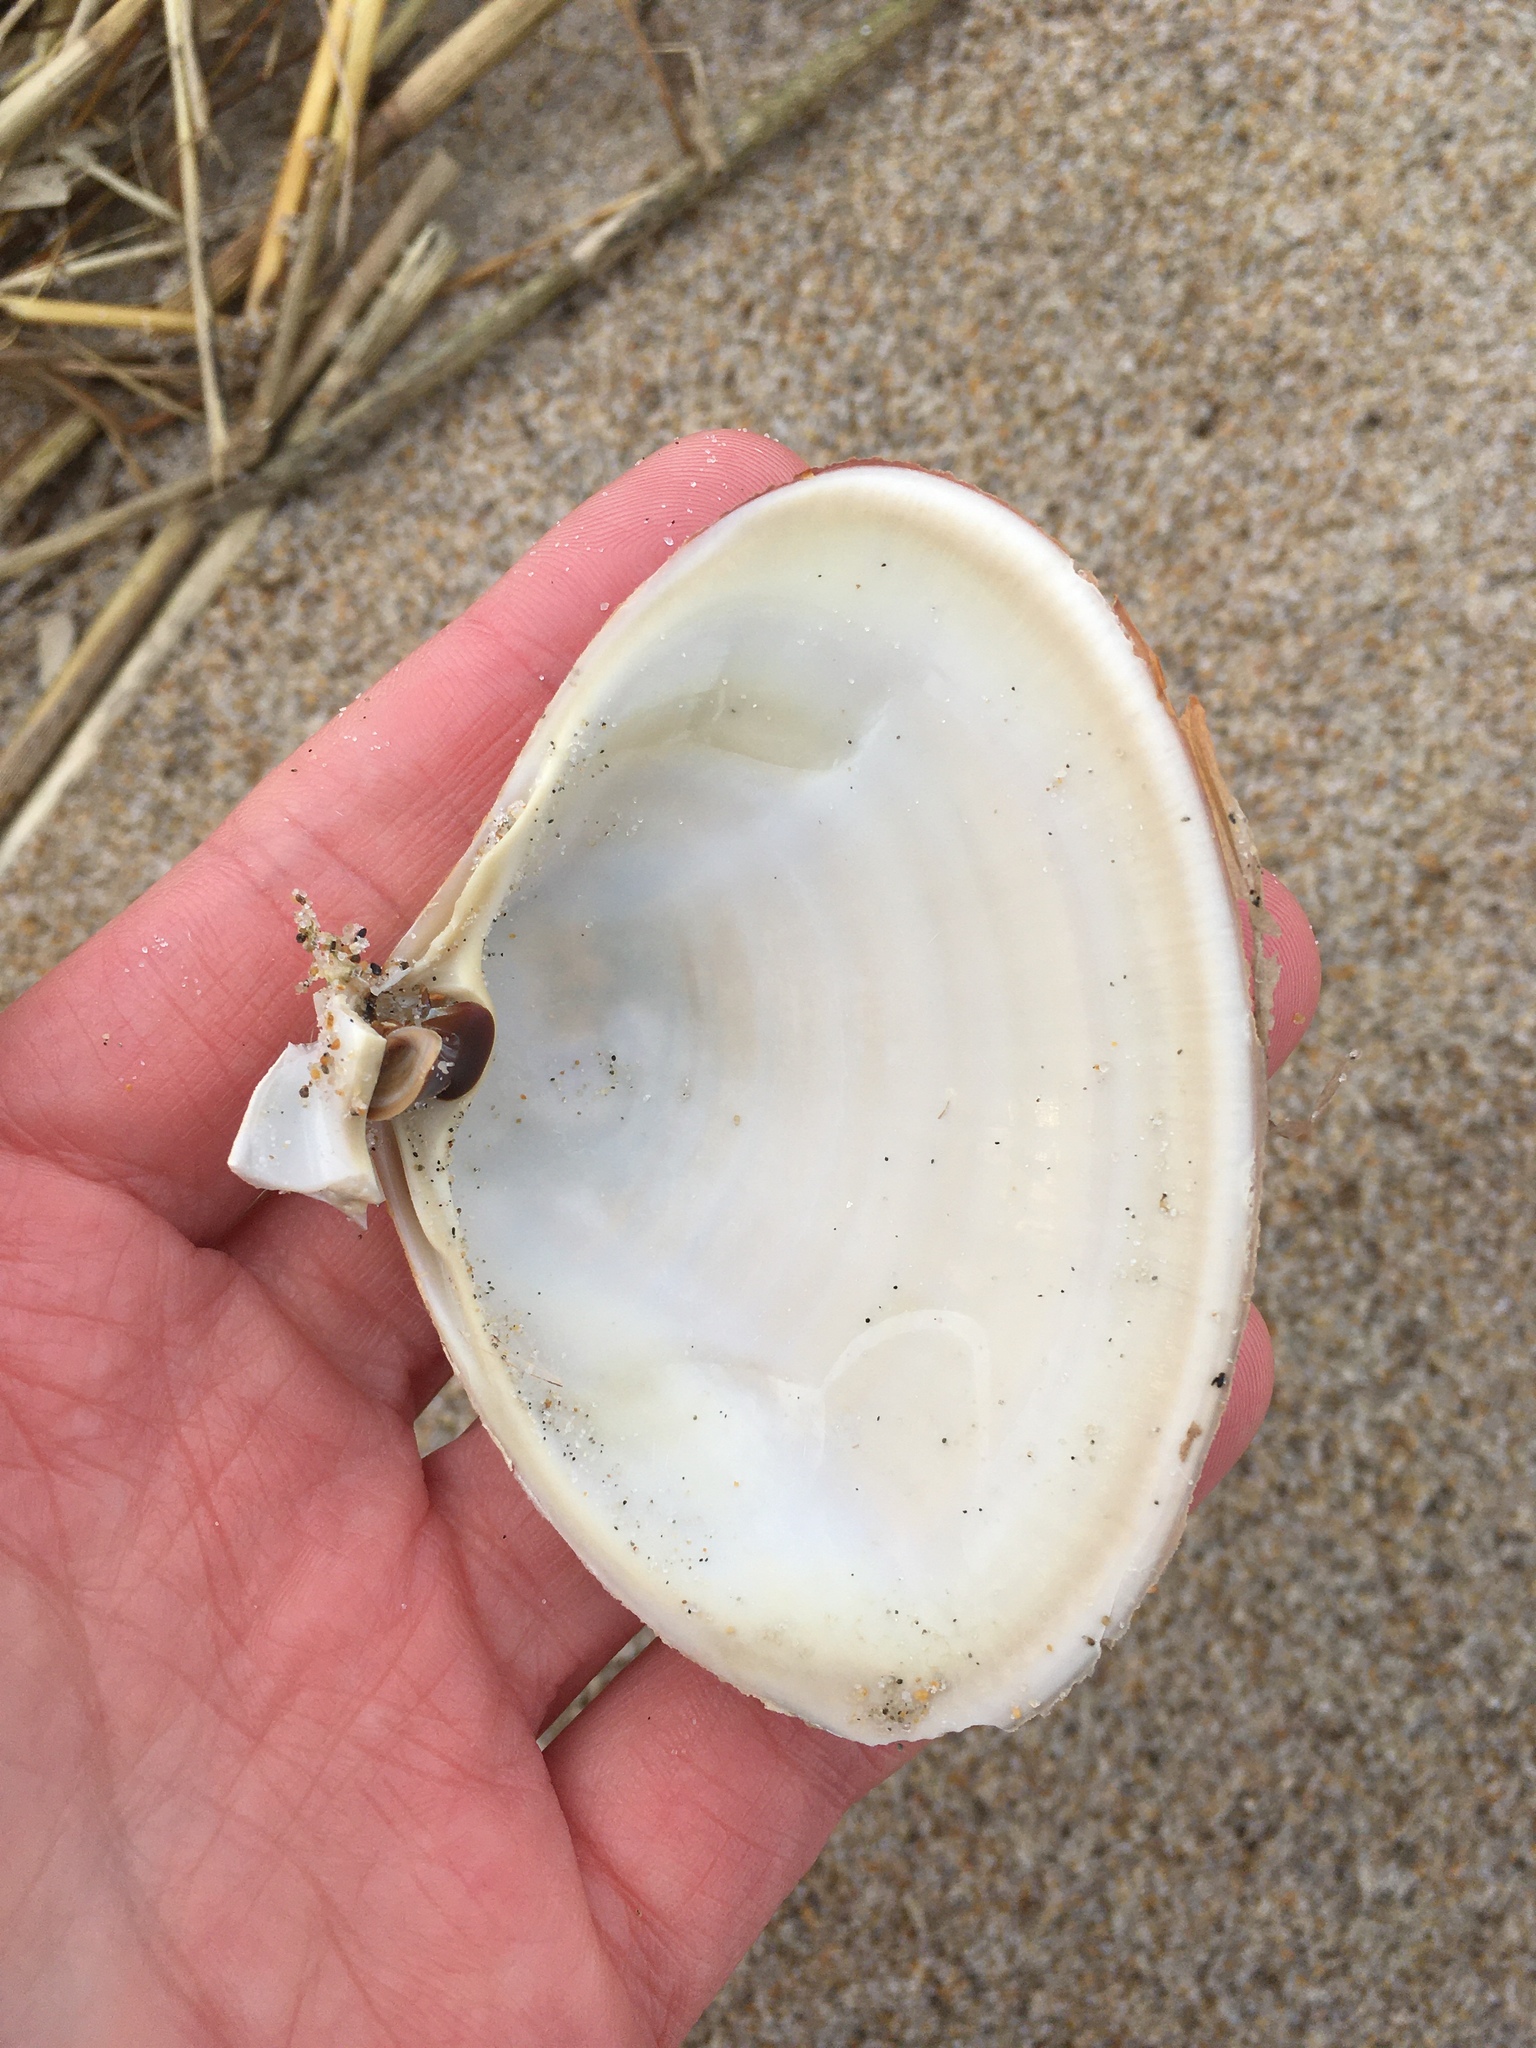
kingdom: Animalia
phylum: Mollusca
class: Bivalvia
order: Venerida
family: Mactridae
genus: Spisula
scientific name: Spisula solidissima
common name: Atlantic surf clam
